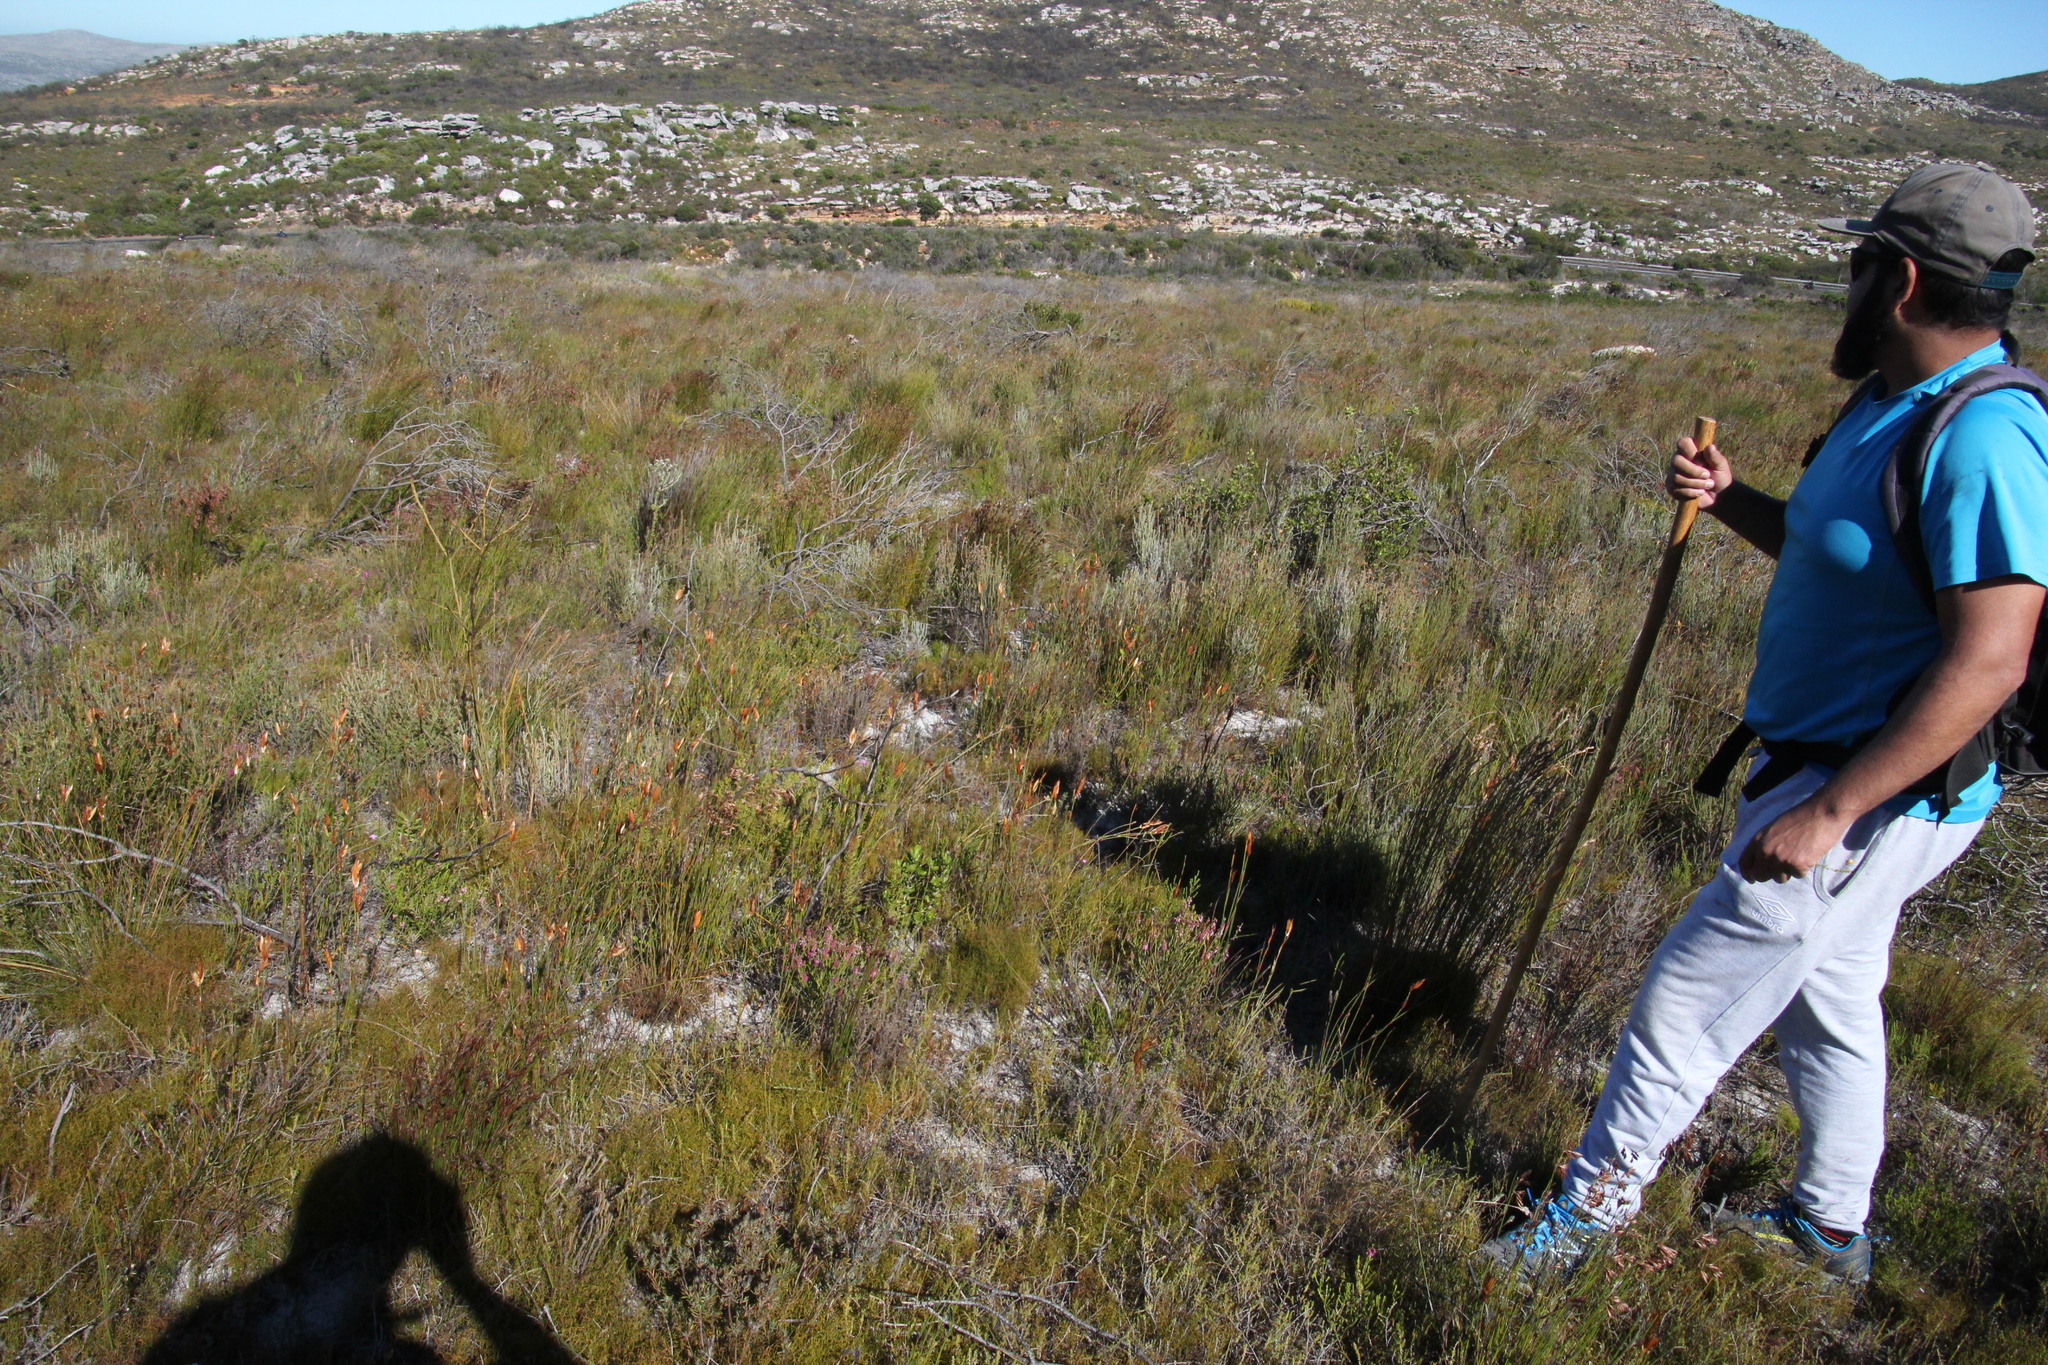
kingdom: Plantae
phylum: Tracheophyta
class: Liliopsida
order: Poales
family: Restionaceae
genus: Willdenowia
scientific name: Willdenowia glomerata
